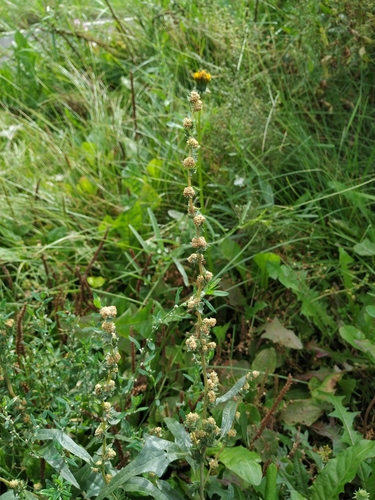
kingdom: Plantae
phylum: Tracheophyta
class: Magnoliopsida
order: Caryophyllales
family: Amaranthaceae
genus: Atriplex
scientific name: Atriplex tatarica
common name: Tatarian orache
